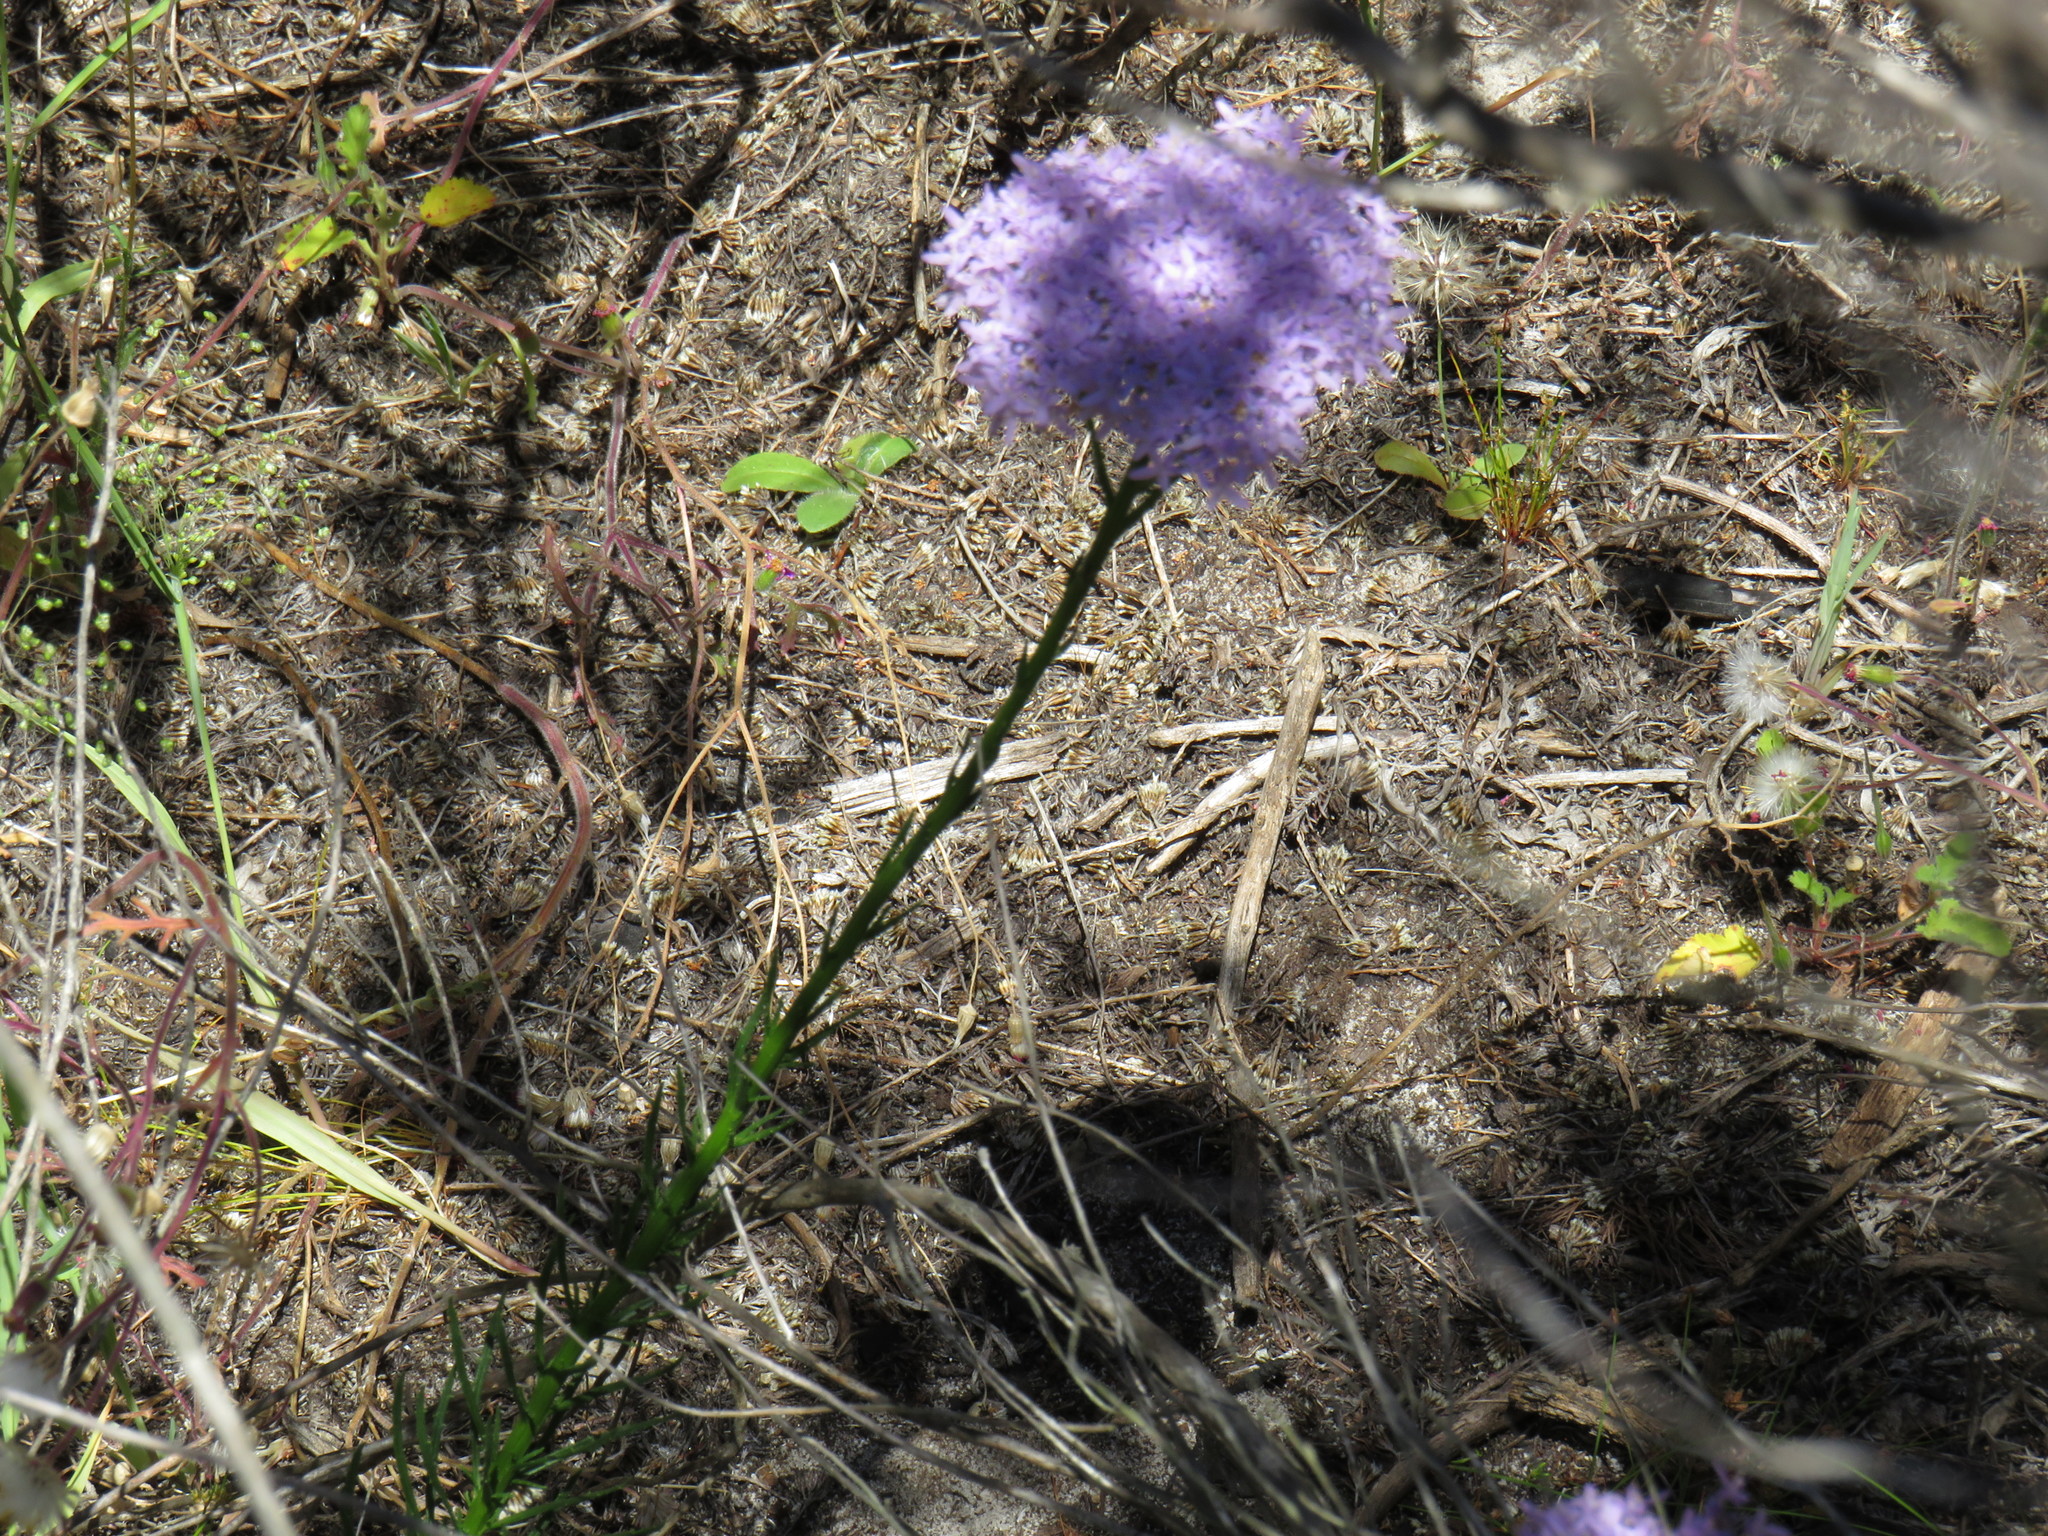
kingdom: Plantae
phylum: Tracheophyta
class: Magnoliopsida
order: Lamiales
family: Scrophulariaceae
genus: Pseudoselago
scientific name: Pseudoselago spuria
